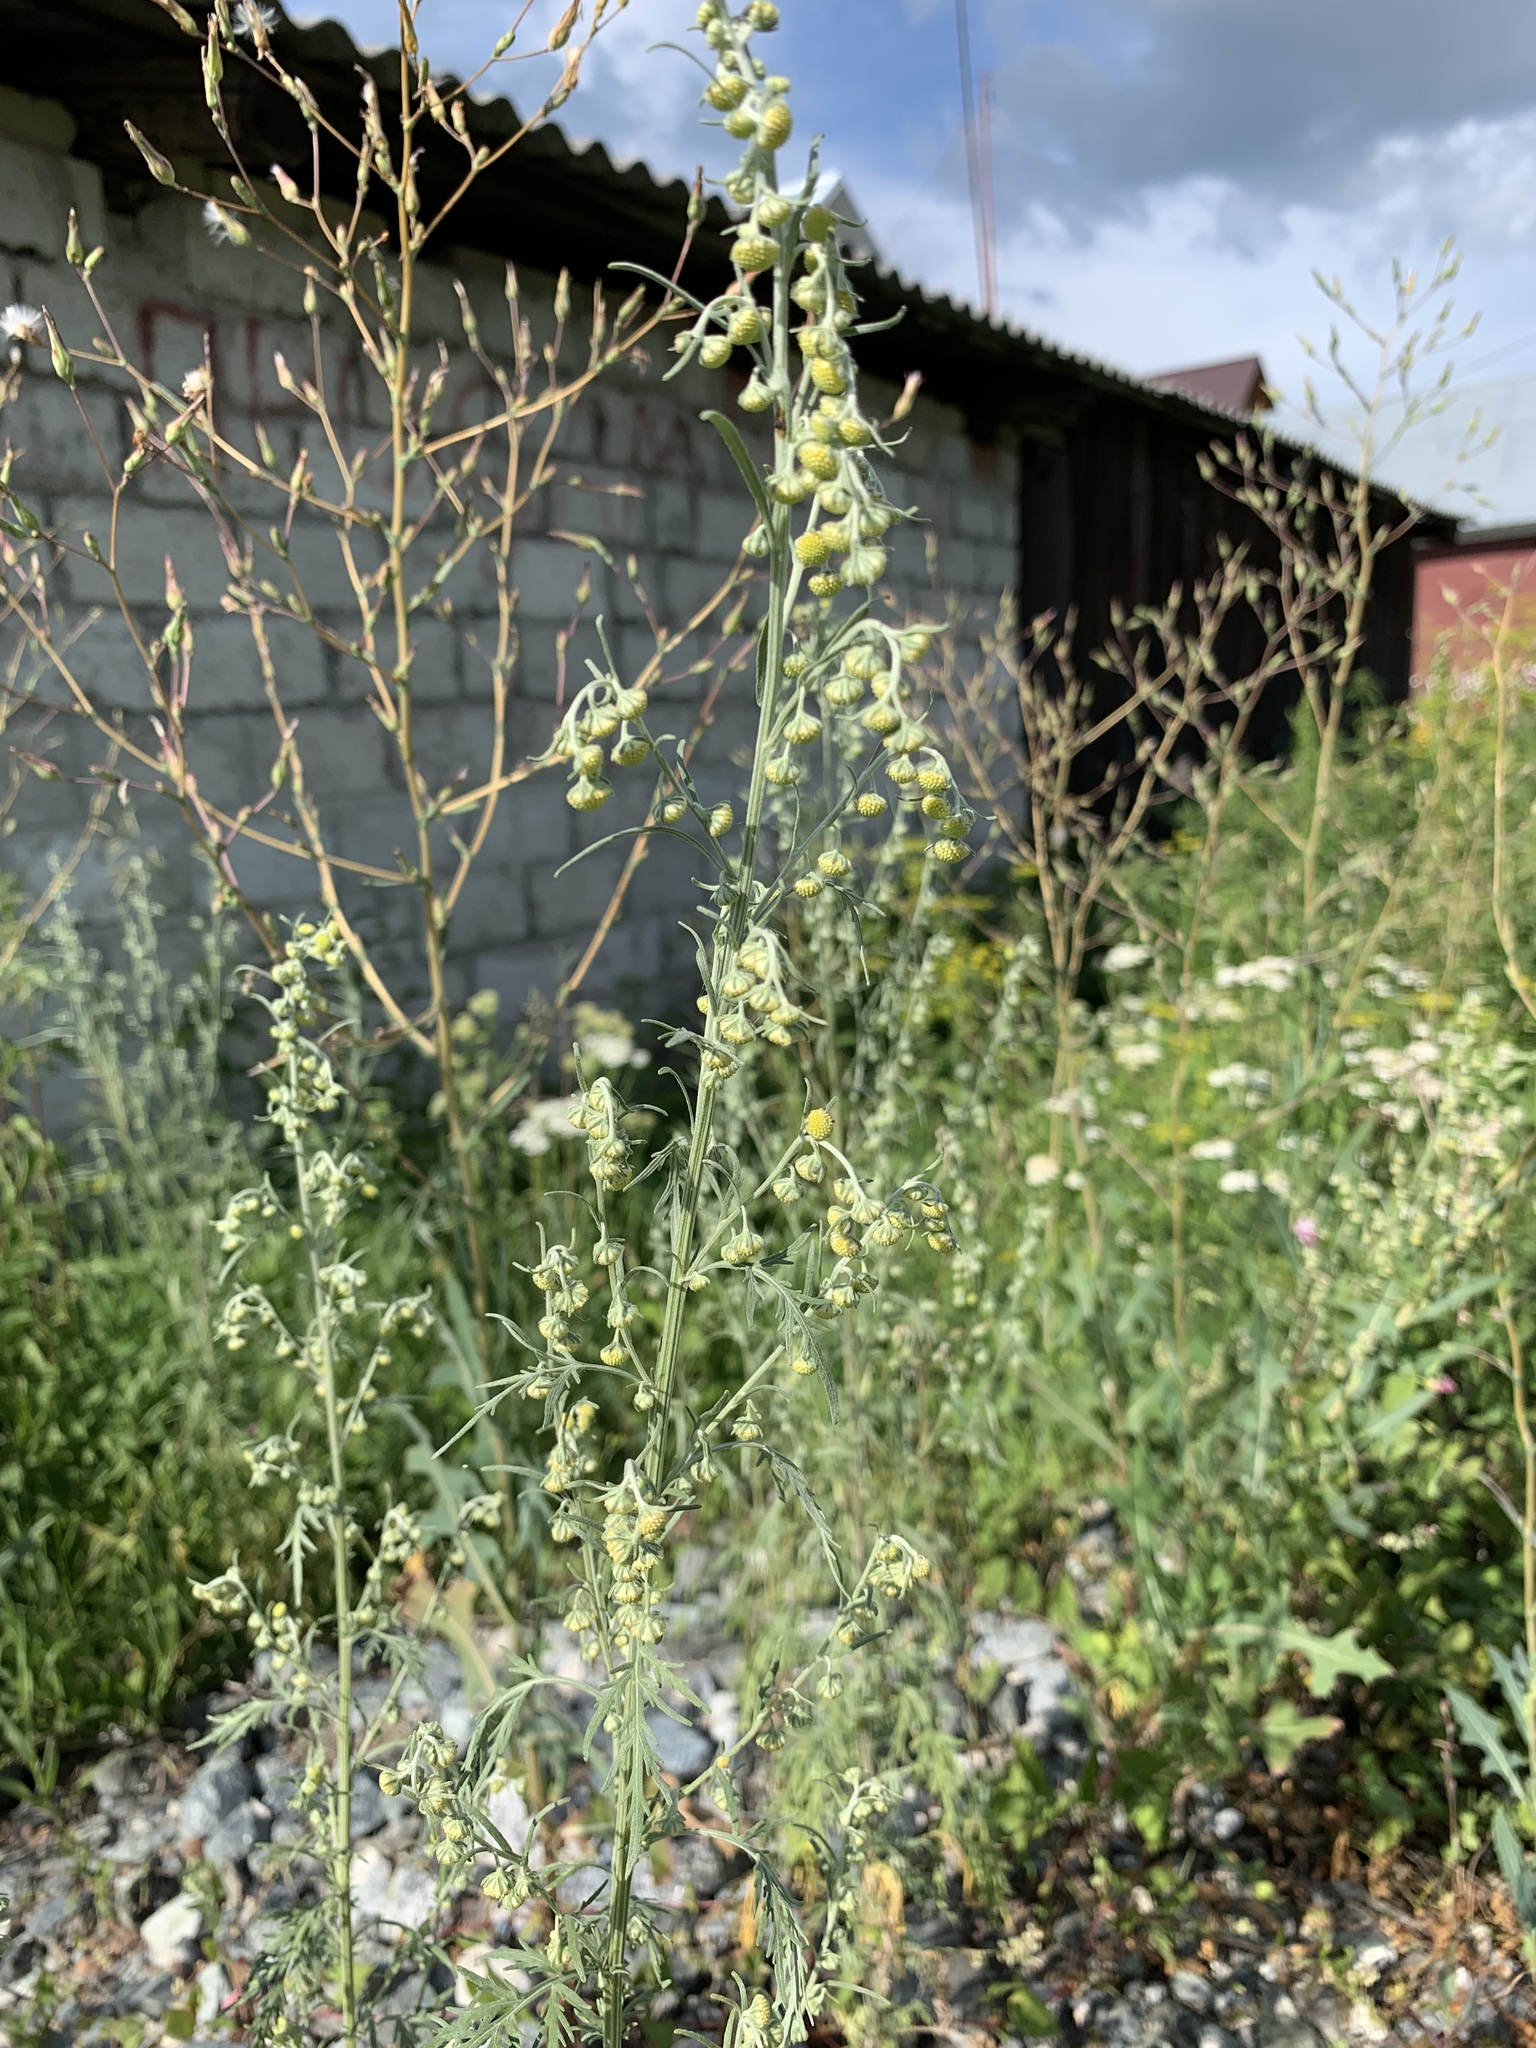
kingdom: Plantae
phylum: Tracheophyta
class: Magnoliopsida
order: Asterales
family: Asteraceae
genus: Artemisia
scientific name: Artemisia sieversiana
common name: Sieversian wormwood
